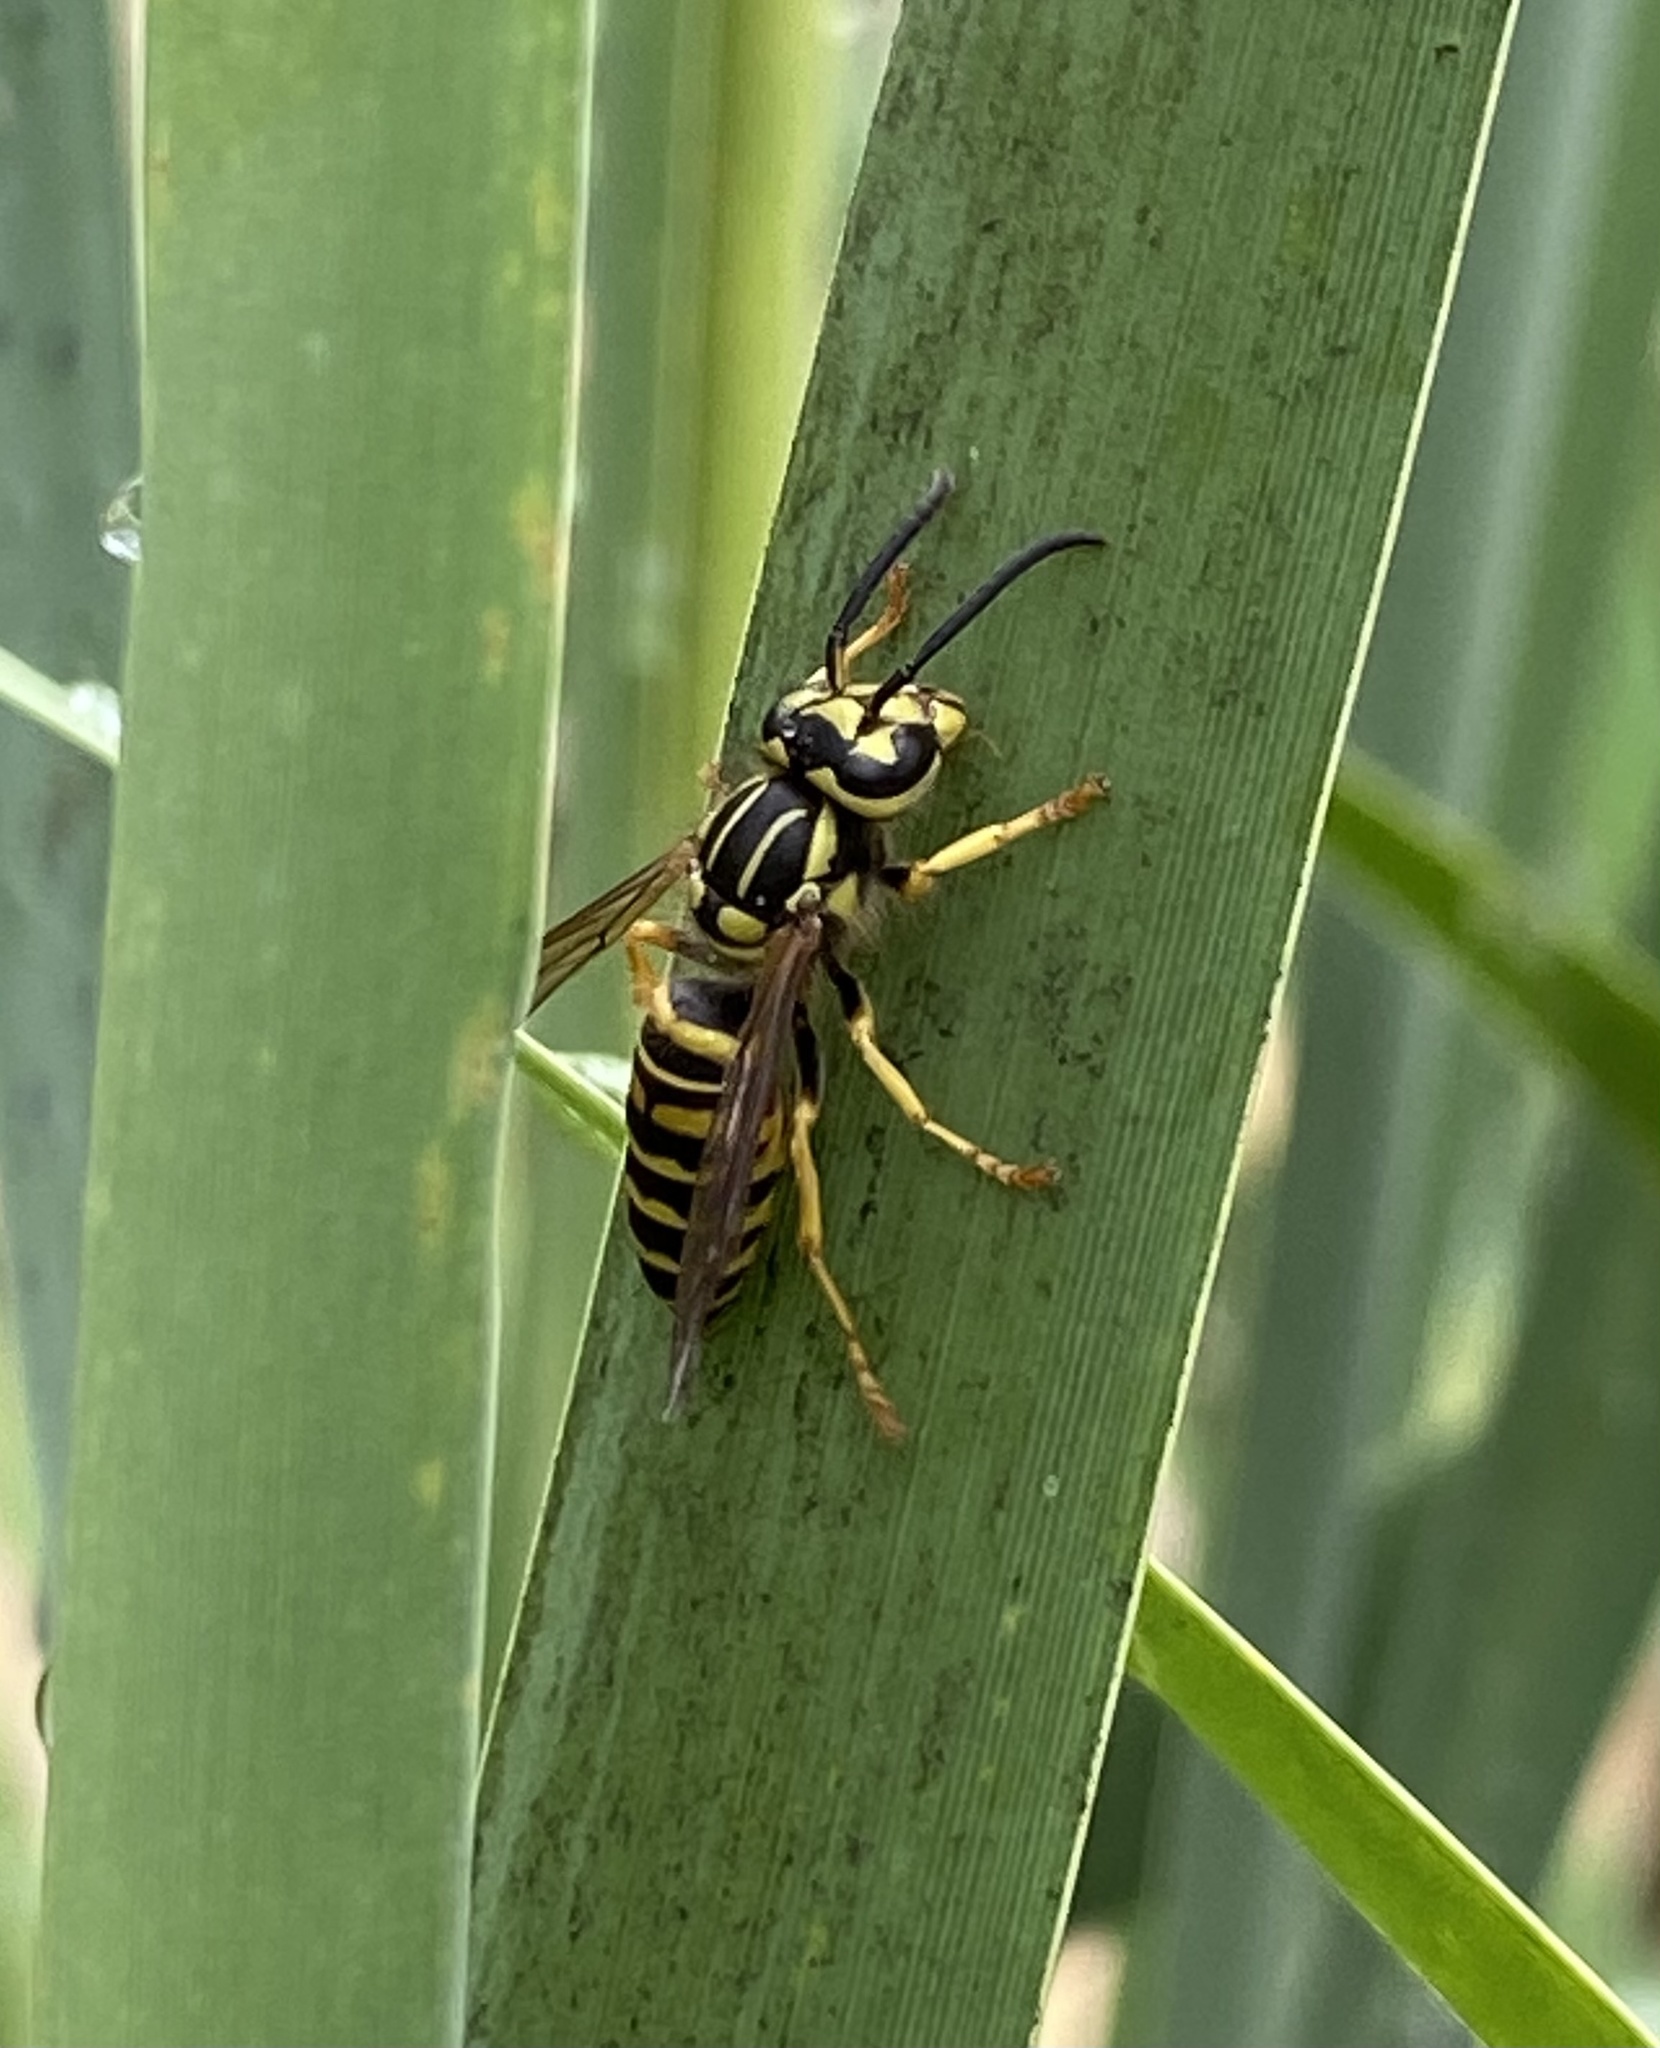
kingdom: Animalia
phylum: Arthropoda
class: Insecta
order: Hymenoptera
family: Vespidae
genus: Vespula
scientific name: Vespula squamosa
